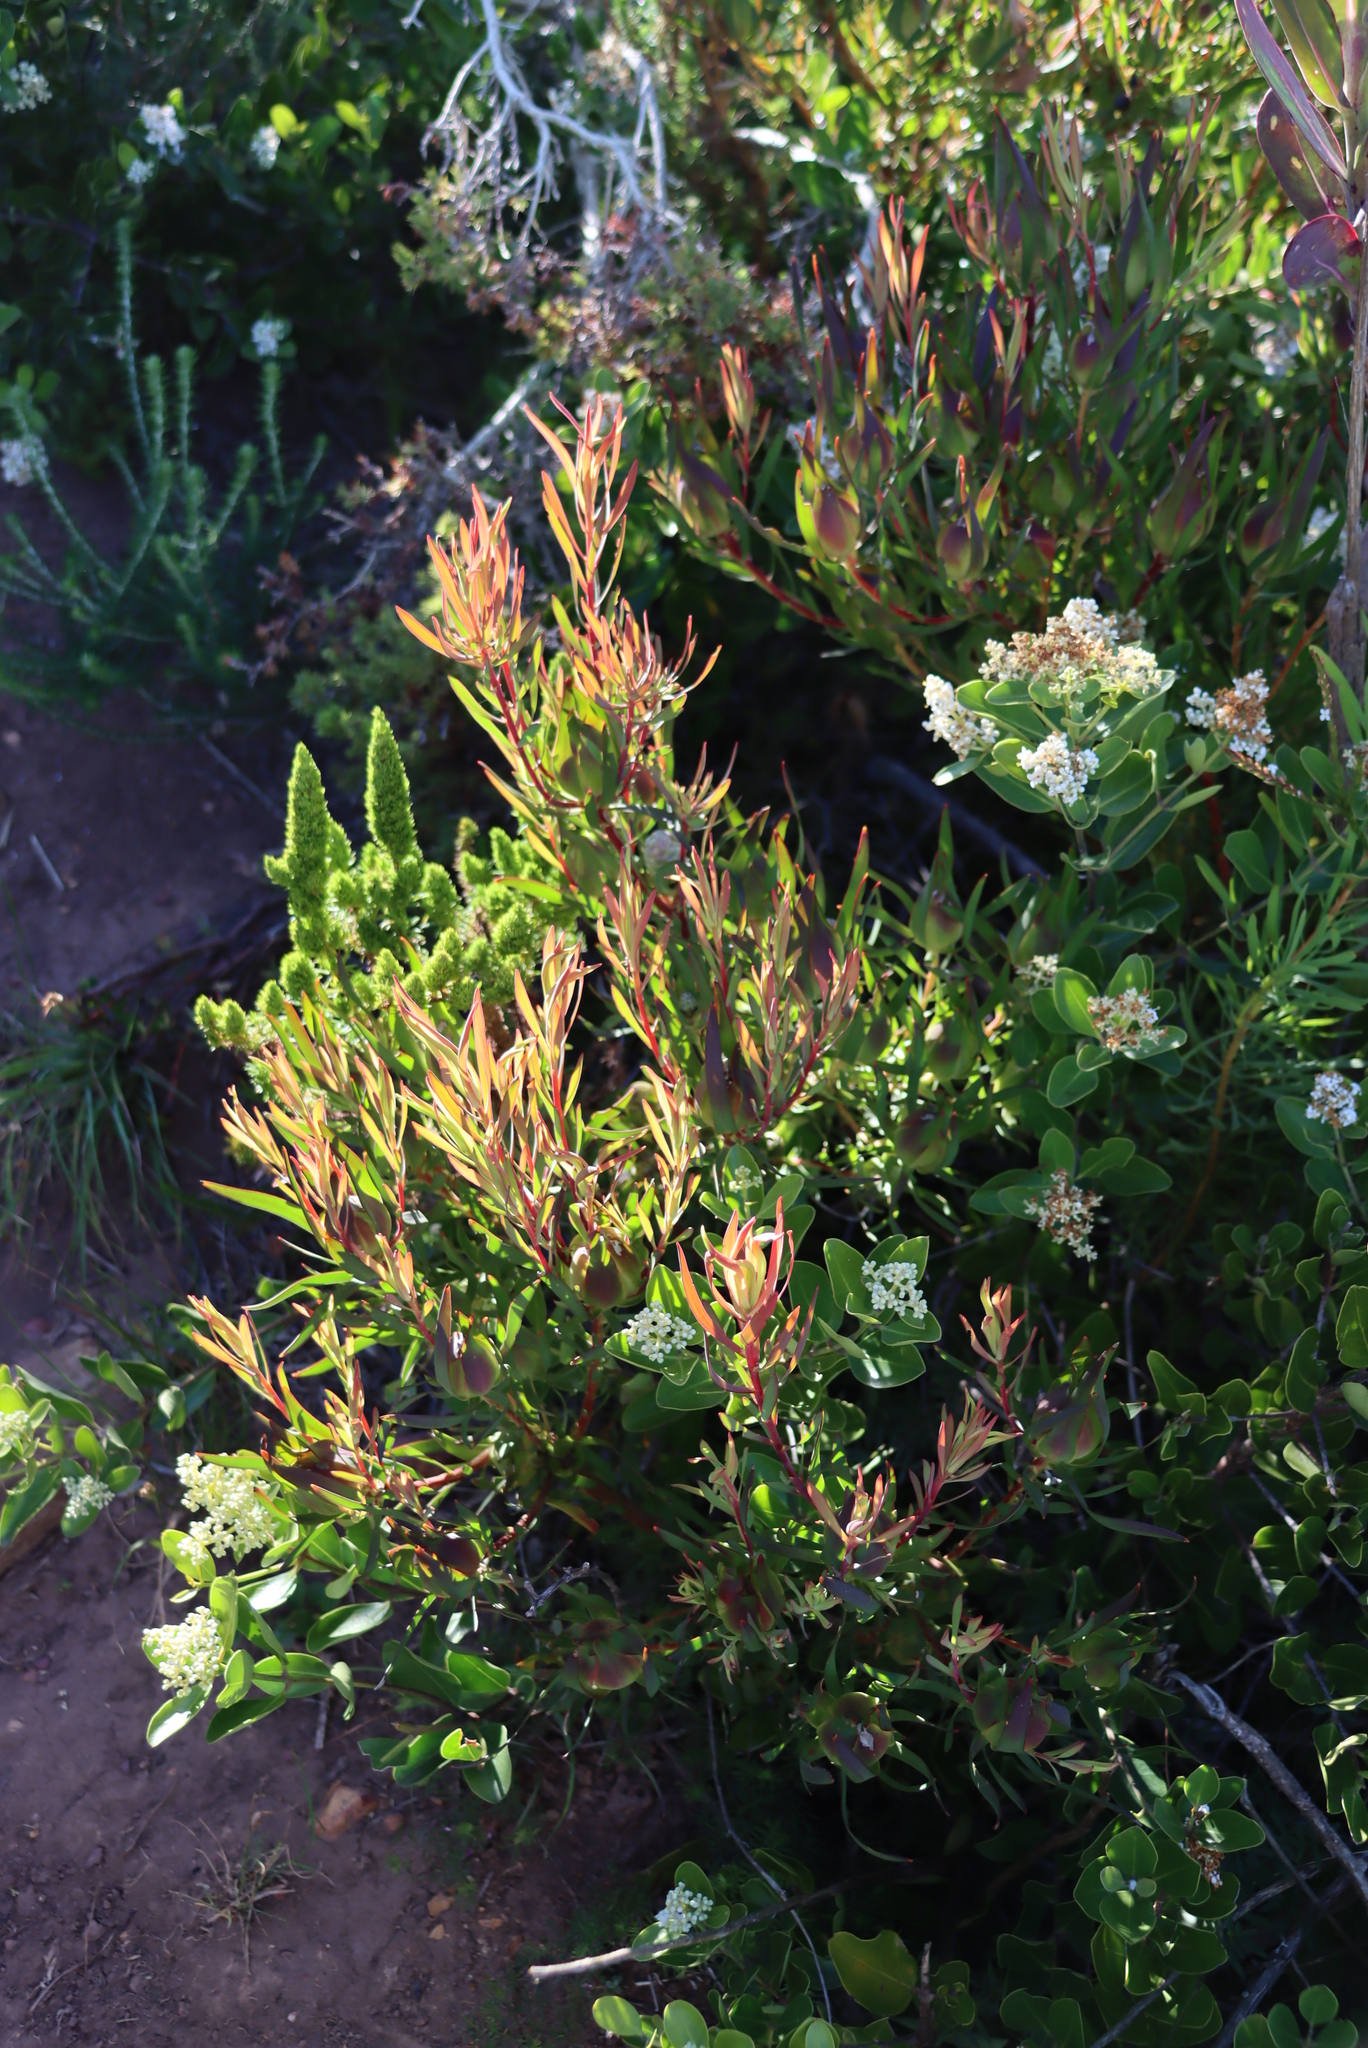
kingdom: Plantae
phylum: Tracheophyta
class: Magnoliopsida
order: Proteales
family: Proteaceae
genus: Leucadendron
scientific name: Leucadendron salignum
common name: Common sunshine conebush
